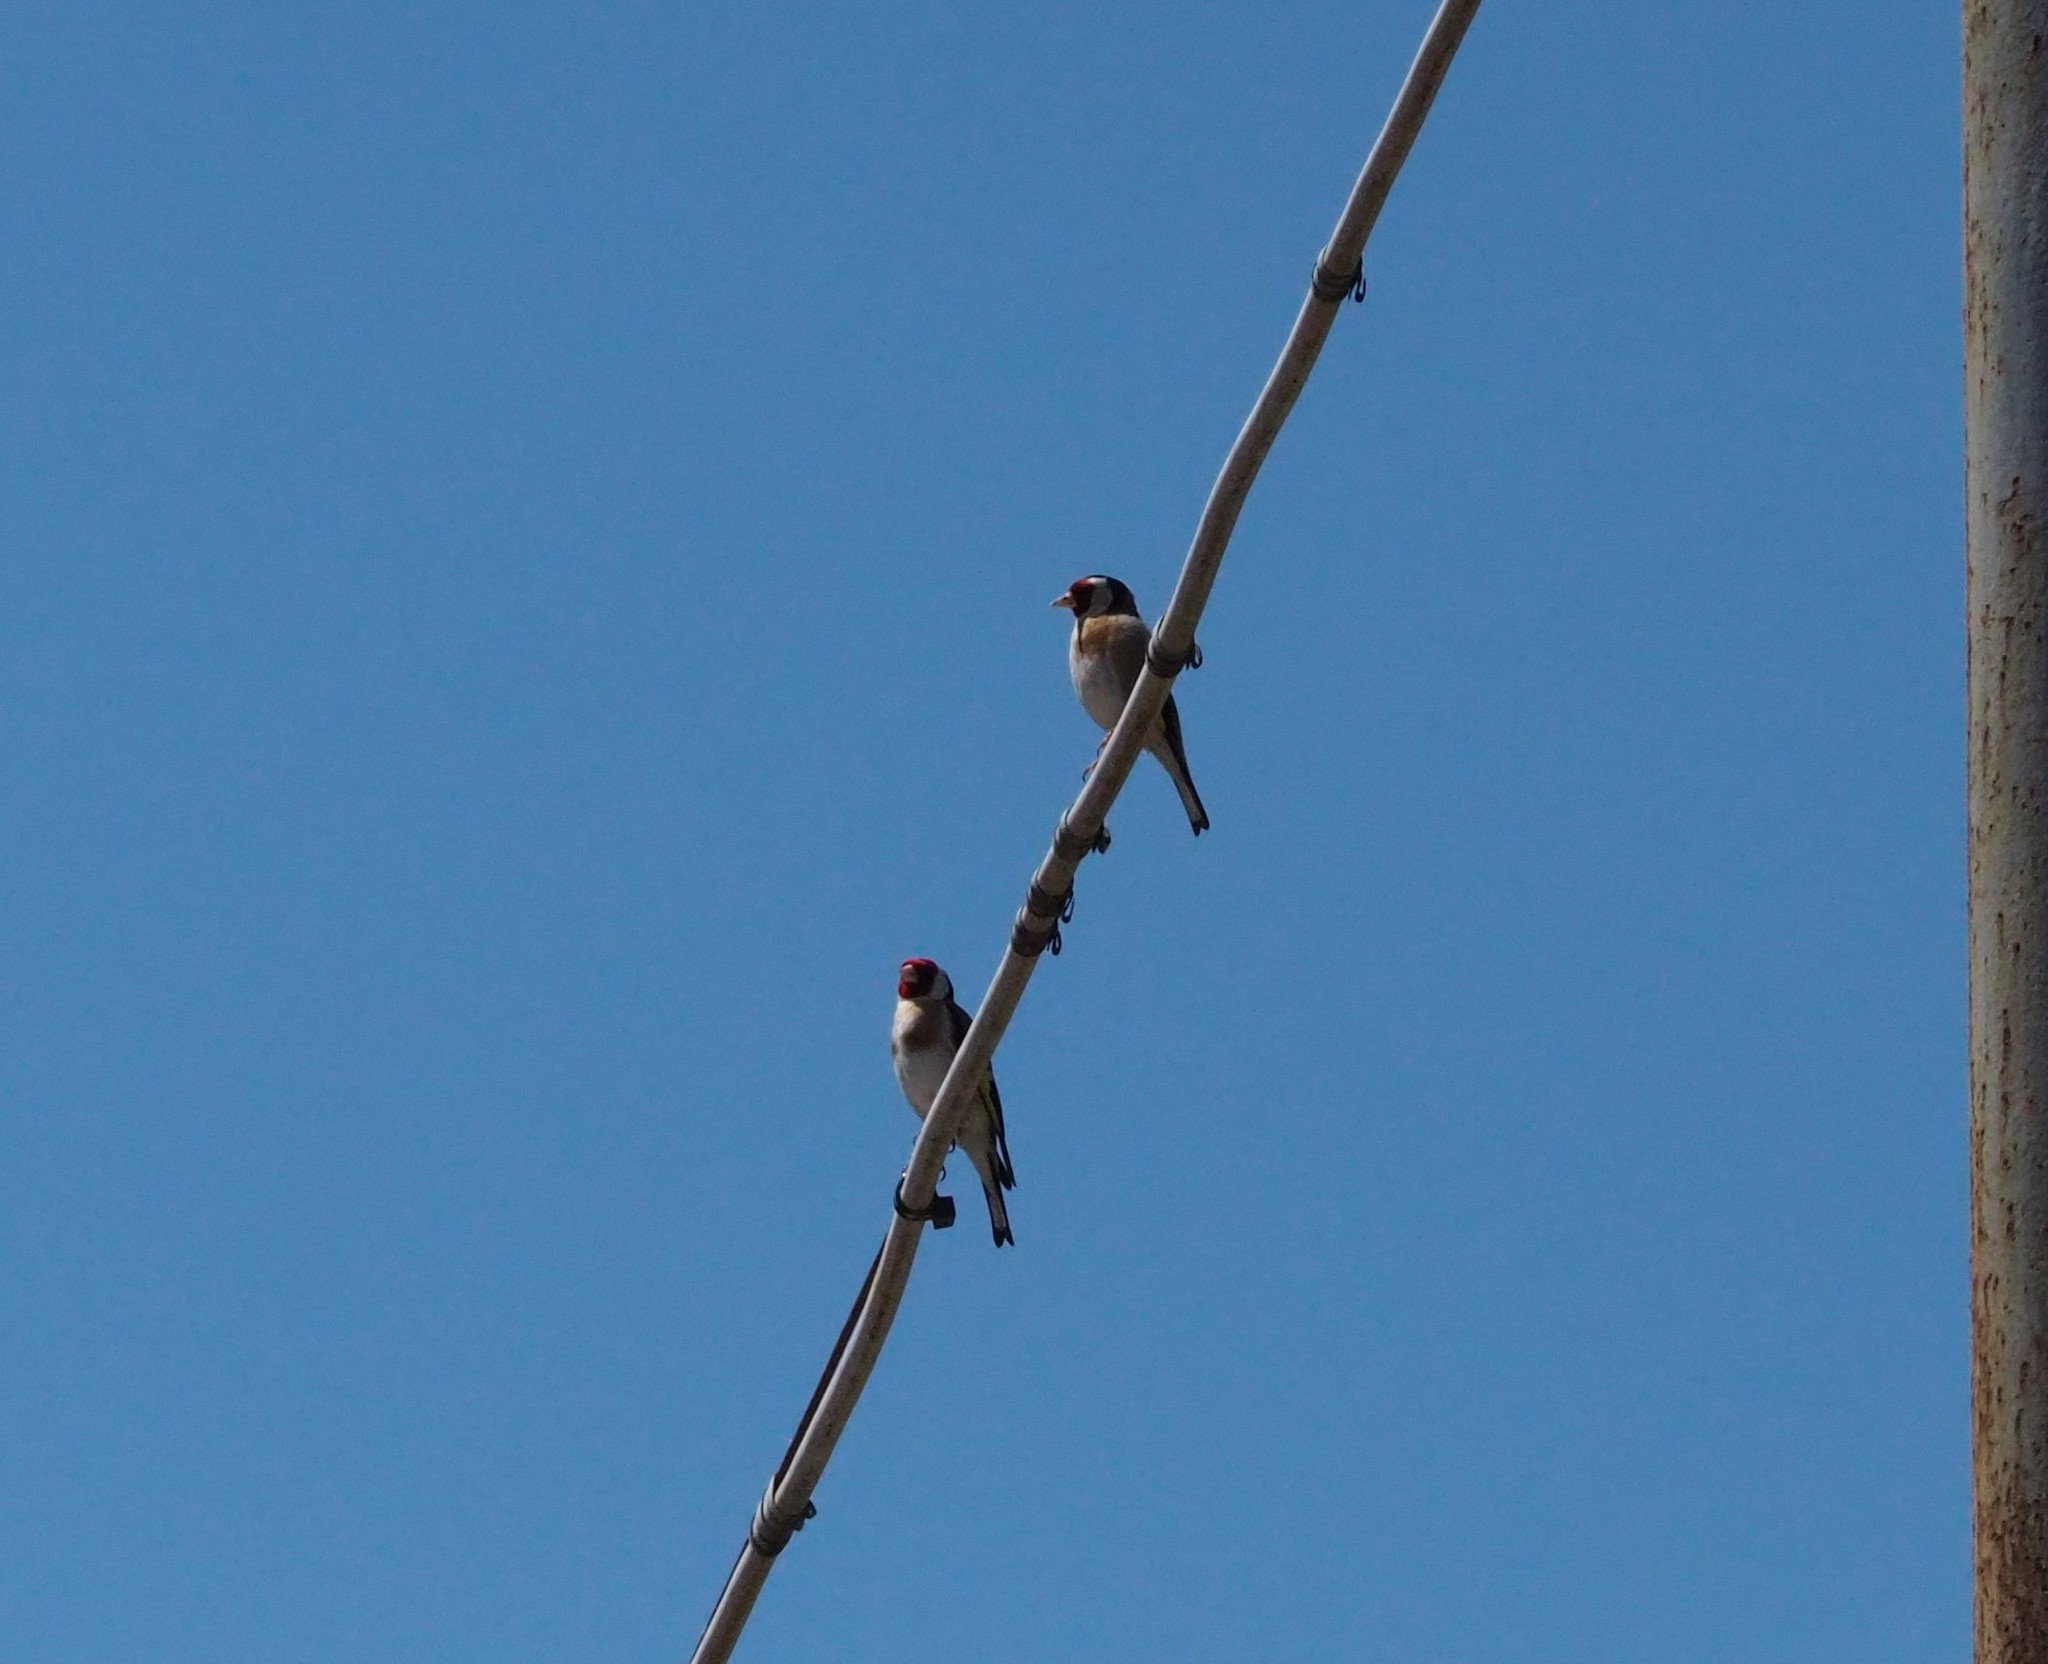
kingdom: Animalia
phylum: Chordata
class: Aves
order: Passeriformes
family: Fringillidae
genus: Carduelis
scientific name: Carduelis carduelis
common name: European goldfinch
